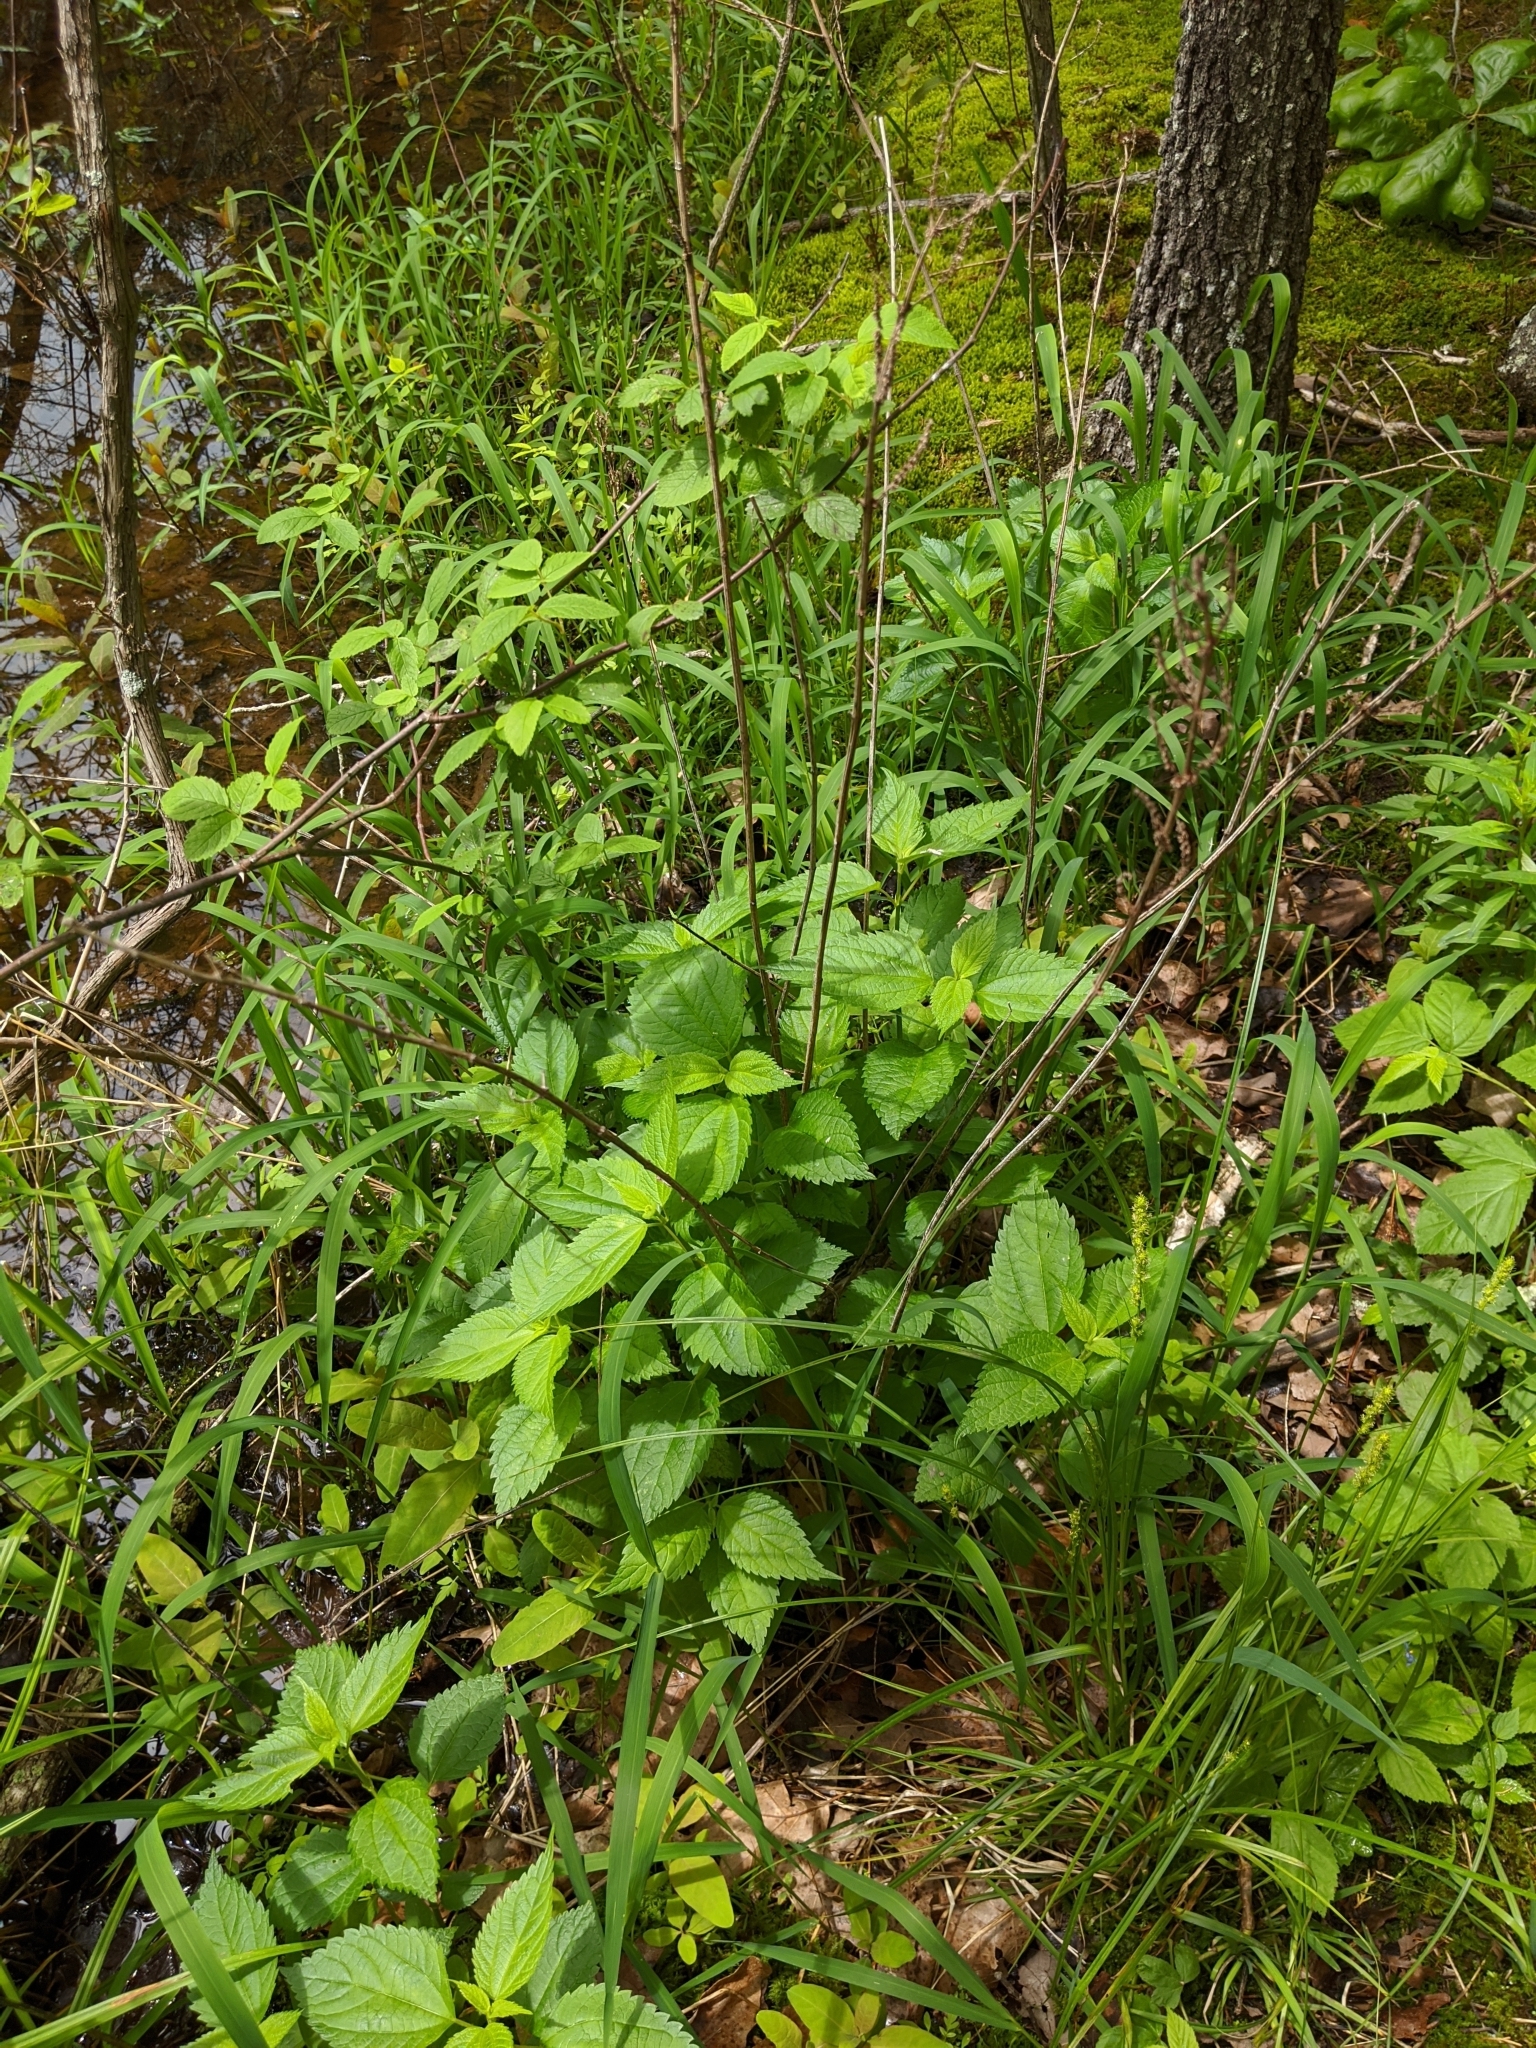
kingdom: Plantae
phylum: Tracheophyta
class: Magnoliopsida
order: Rosales
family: Urticaceae
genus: Boehmeria
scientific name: Boehmeria cylindrica
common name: Bog-hemp
